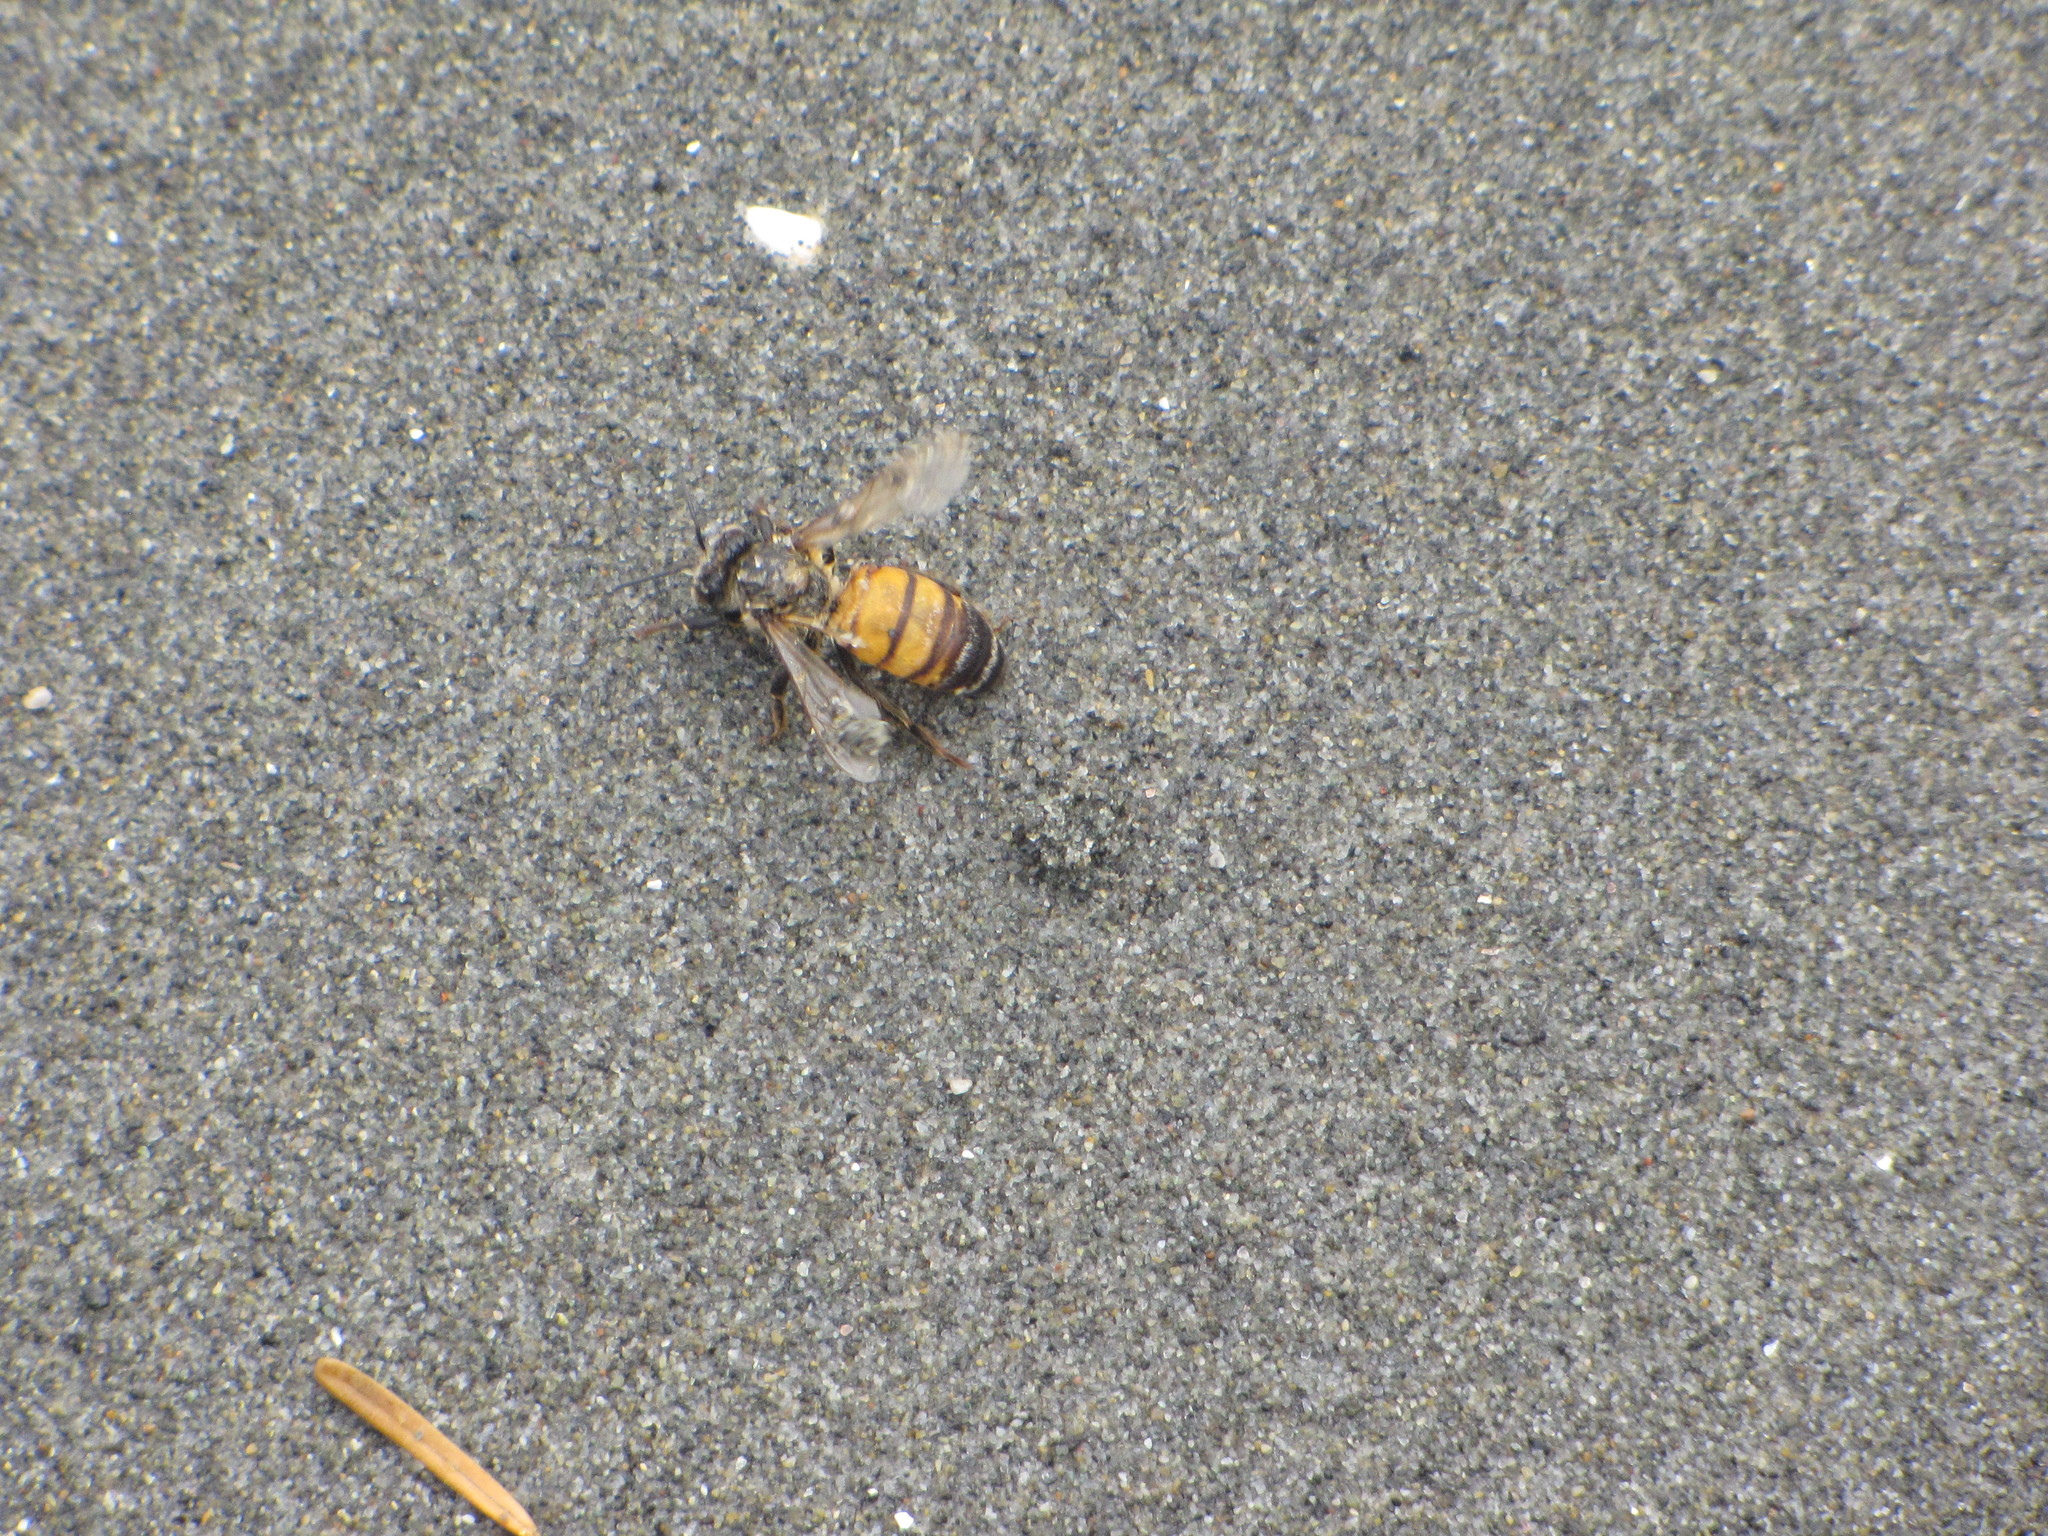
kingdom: Animalia
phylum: Arthropoda
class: Insecta
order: Hymenoptera
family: Apidae
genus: Apis
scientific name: Apis mellifera
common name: Honey bee
